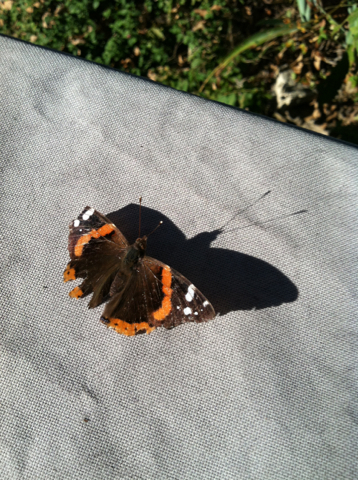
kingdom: Animalia
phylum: Arthropoda
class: Insecta
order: Lepidoptera
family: Nymphalidae
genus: Vanessa
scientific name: Vanessa atalanta
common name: Red admiral
